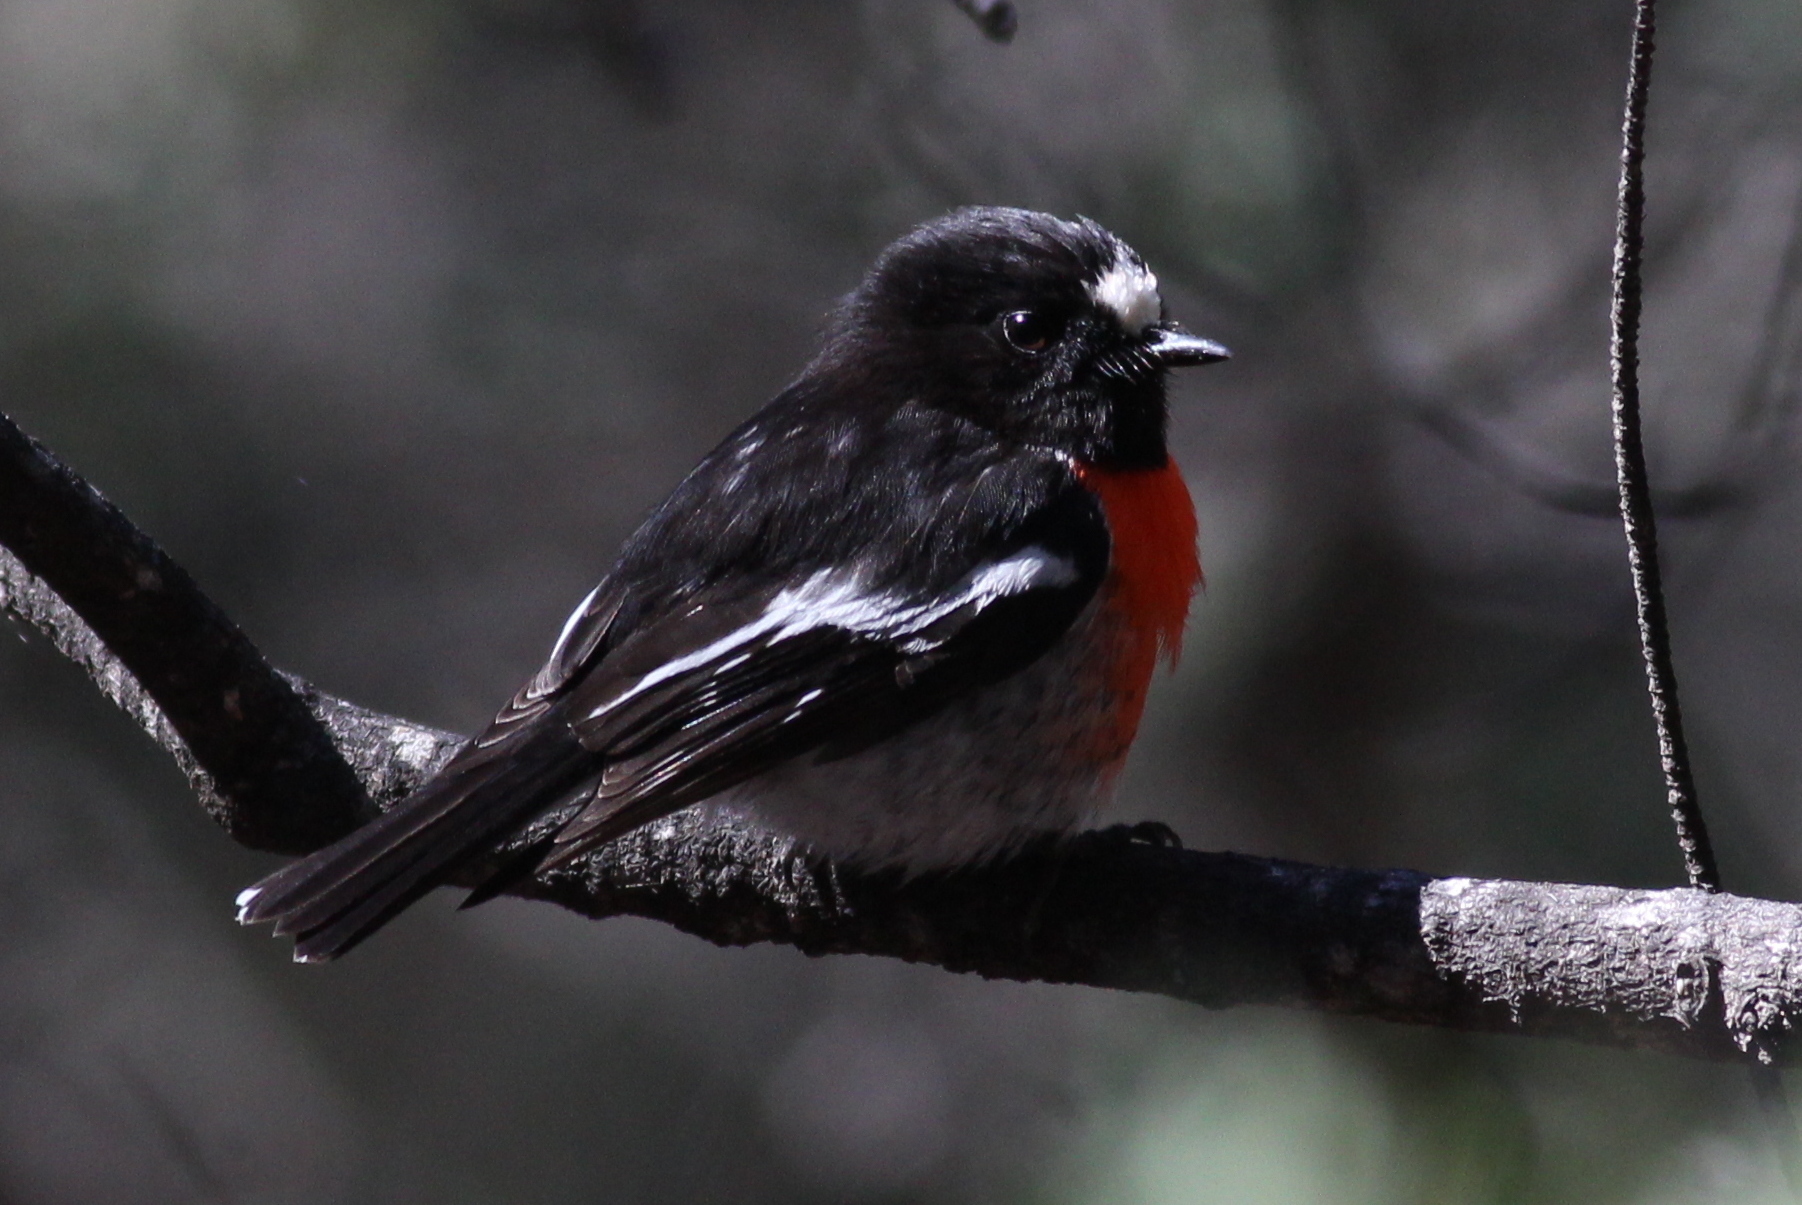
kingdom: Animalia
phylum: Chordata
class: Aves
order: Passeriformes
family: Petroicidae
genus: Petroica
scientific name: Petroica boodang
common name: Scarlet robin
